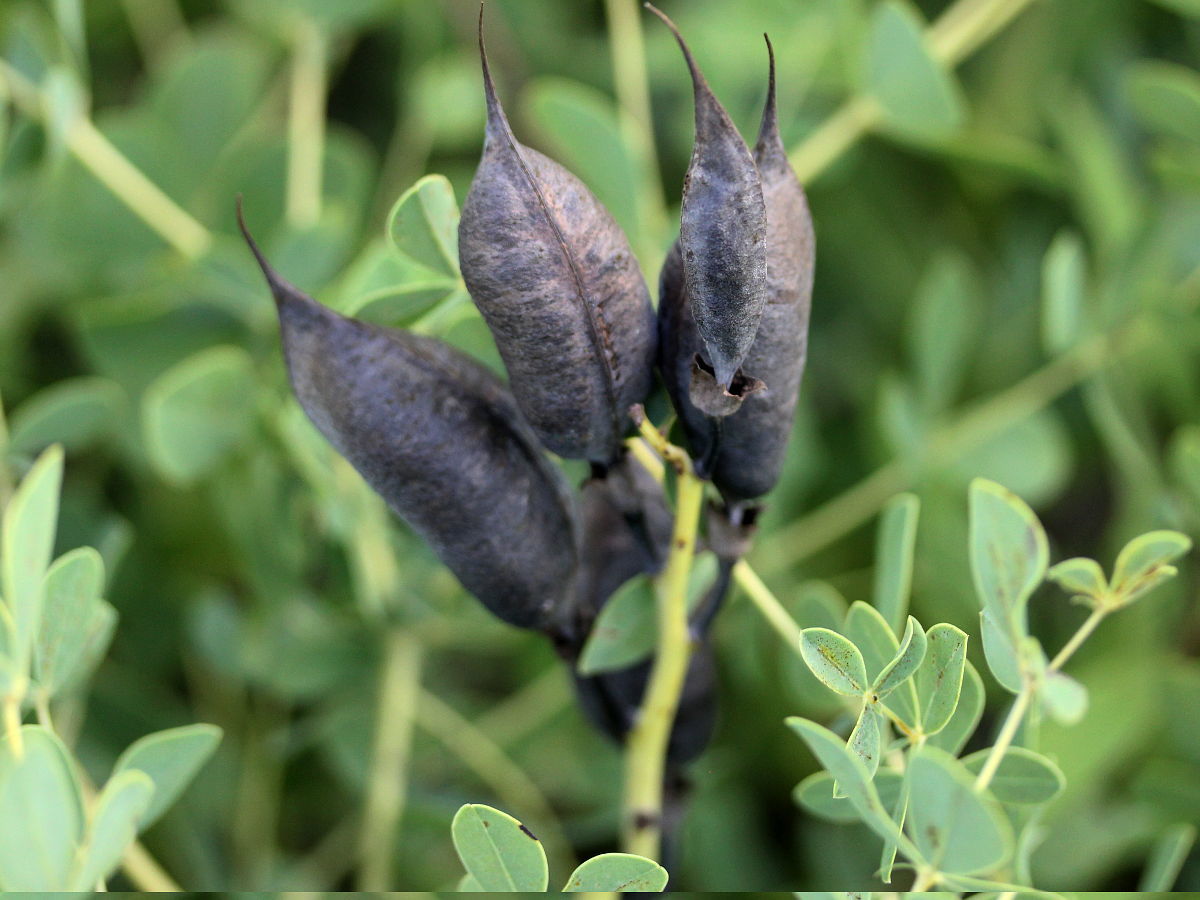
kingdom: Plantae
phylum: Tracheophyta
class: Magnoliopsida
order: Fabales
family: Fabaceae
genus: Baptisia
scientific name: Baptisia australis
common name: Blue false indigo
